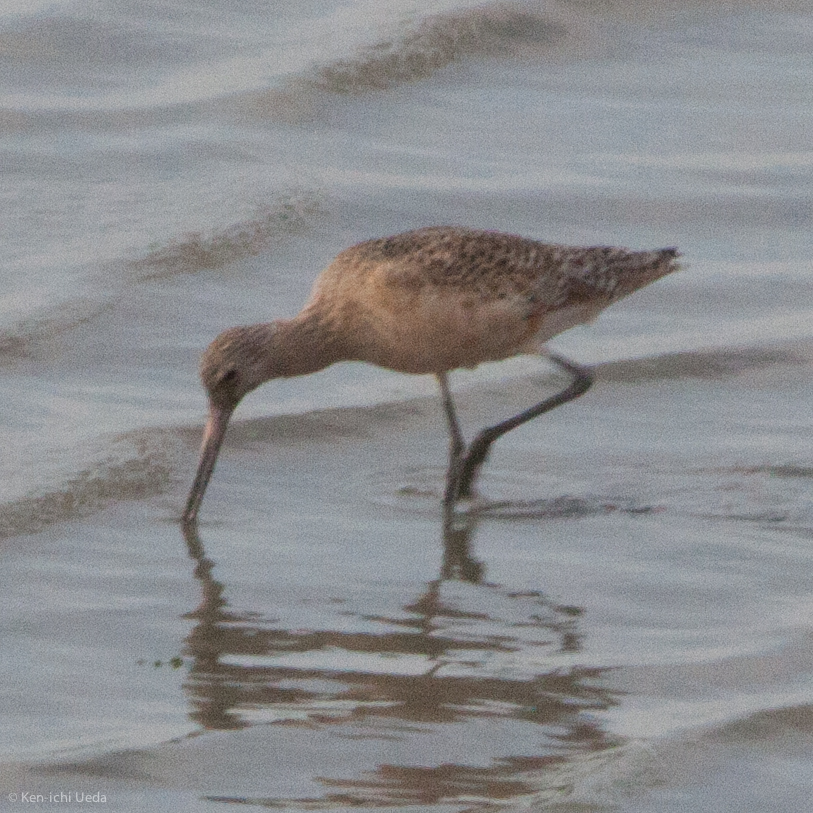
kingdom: Animalia
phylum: Chordata
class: Aves
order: Charadriiformes
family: Scolopacidae
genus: Limosa
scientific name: Limosa fedoa
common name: Marbled godwit
